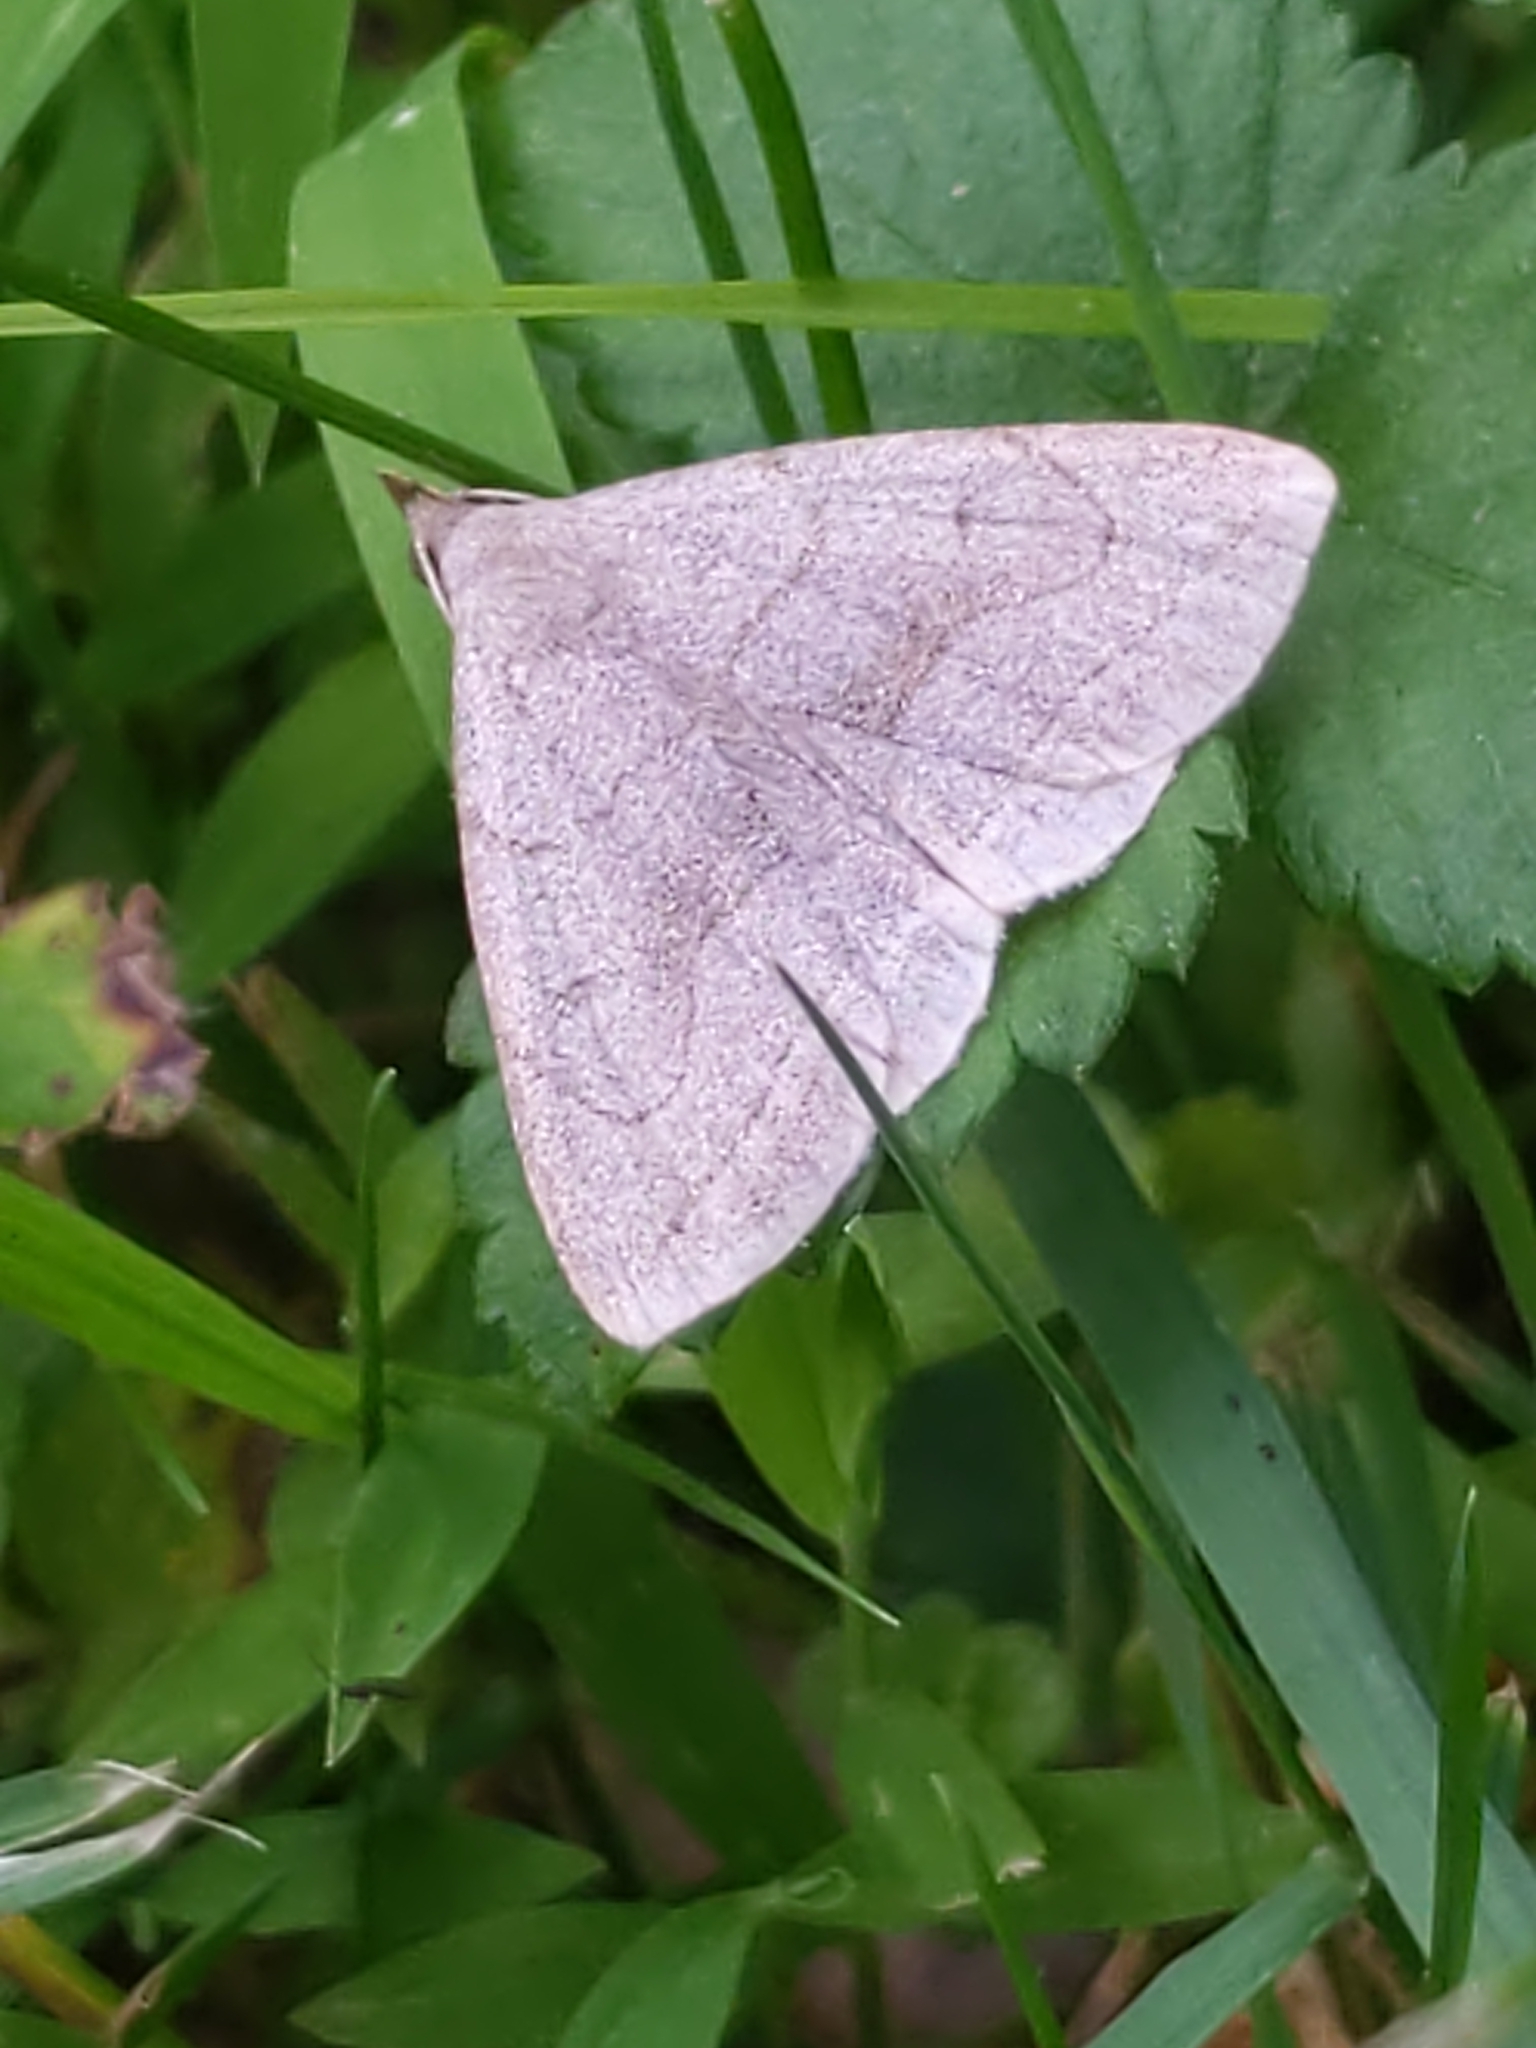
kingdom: Animalia
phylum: Arthropoda
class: Insecta
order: Lepidoptera
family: Erebidae
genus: Zanclognatha
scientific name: Zanclognatha pedipilalis
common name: Grayish fan-foot
